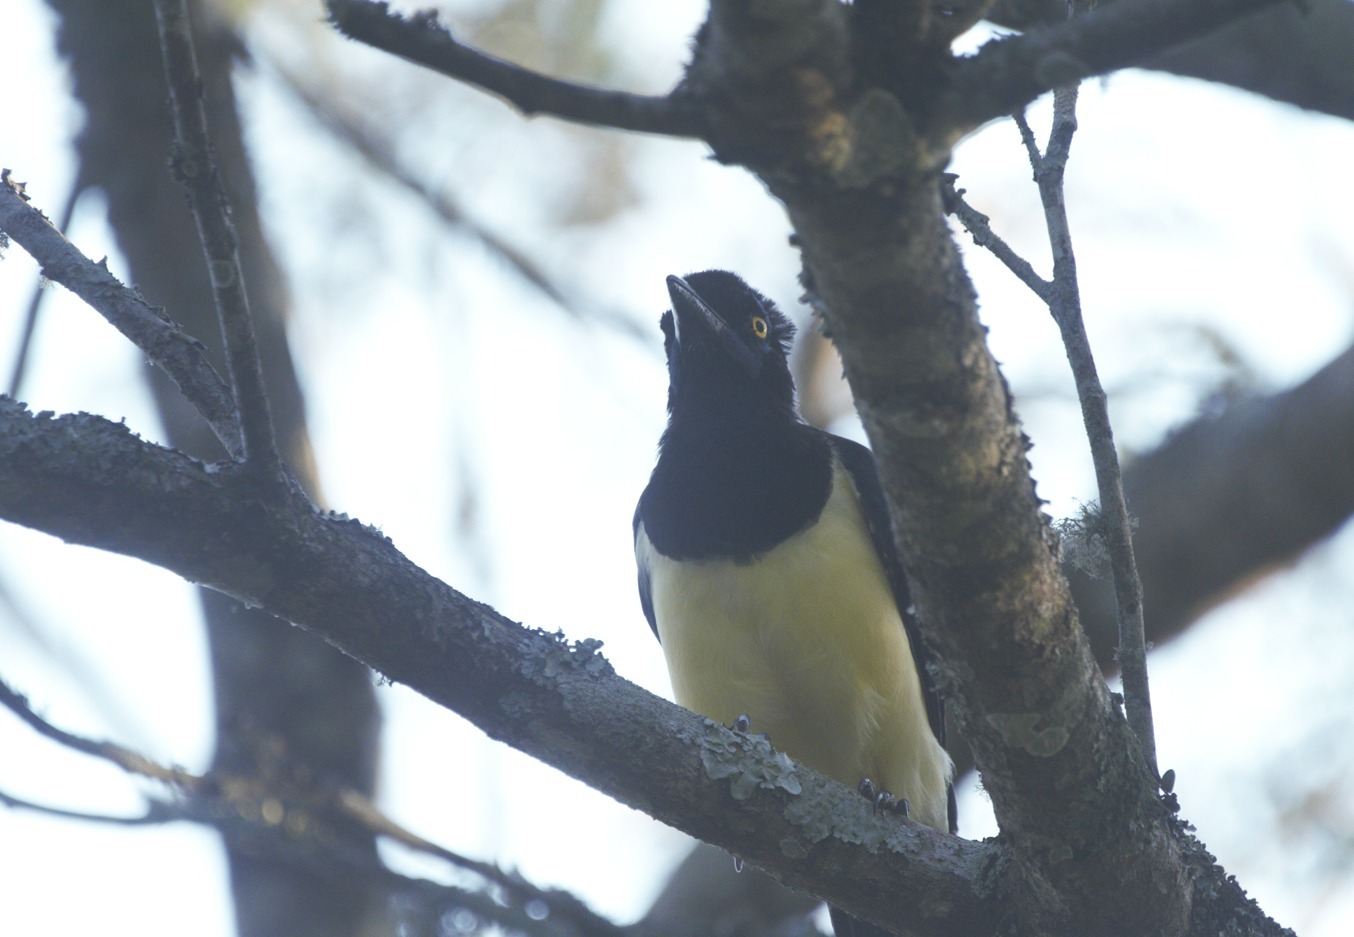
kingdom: Animalia
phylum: Chordata
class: Aves
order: Passeriformes
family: Corvidae
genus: Cyanocorax
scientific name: Cyanocorax chrysops
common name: Plush-crested jay
